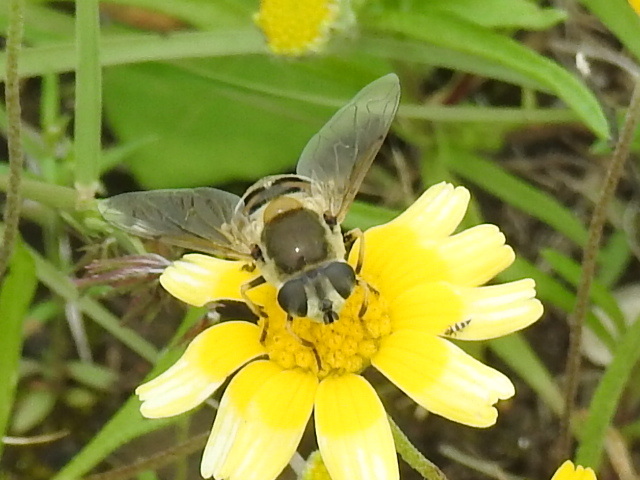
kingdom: Animalia
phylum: Arthropoda
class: Insecta
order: Diptera
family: Syrphidae
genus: Eristalis
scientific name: Eristalis stipator
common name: Yellow-shouldered drone fly
